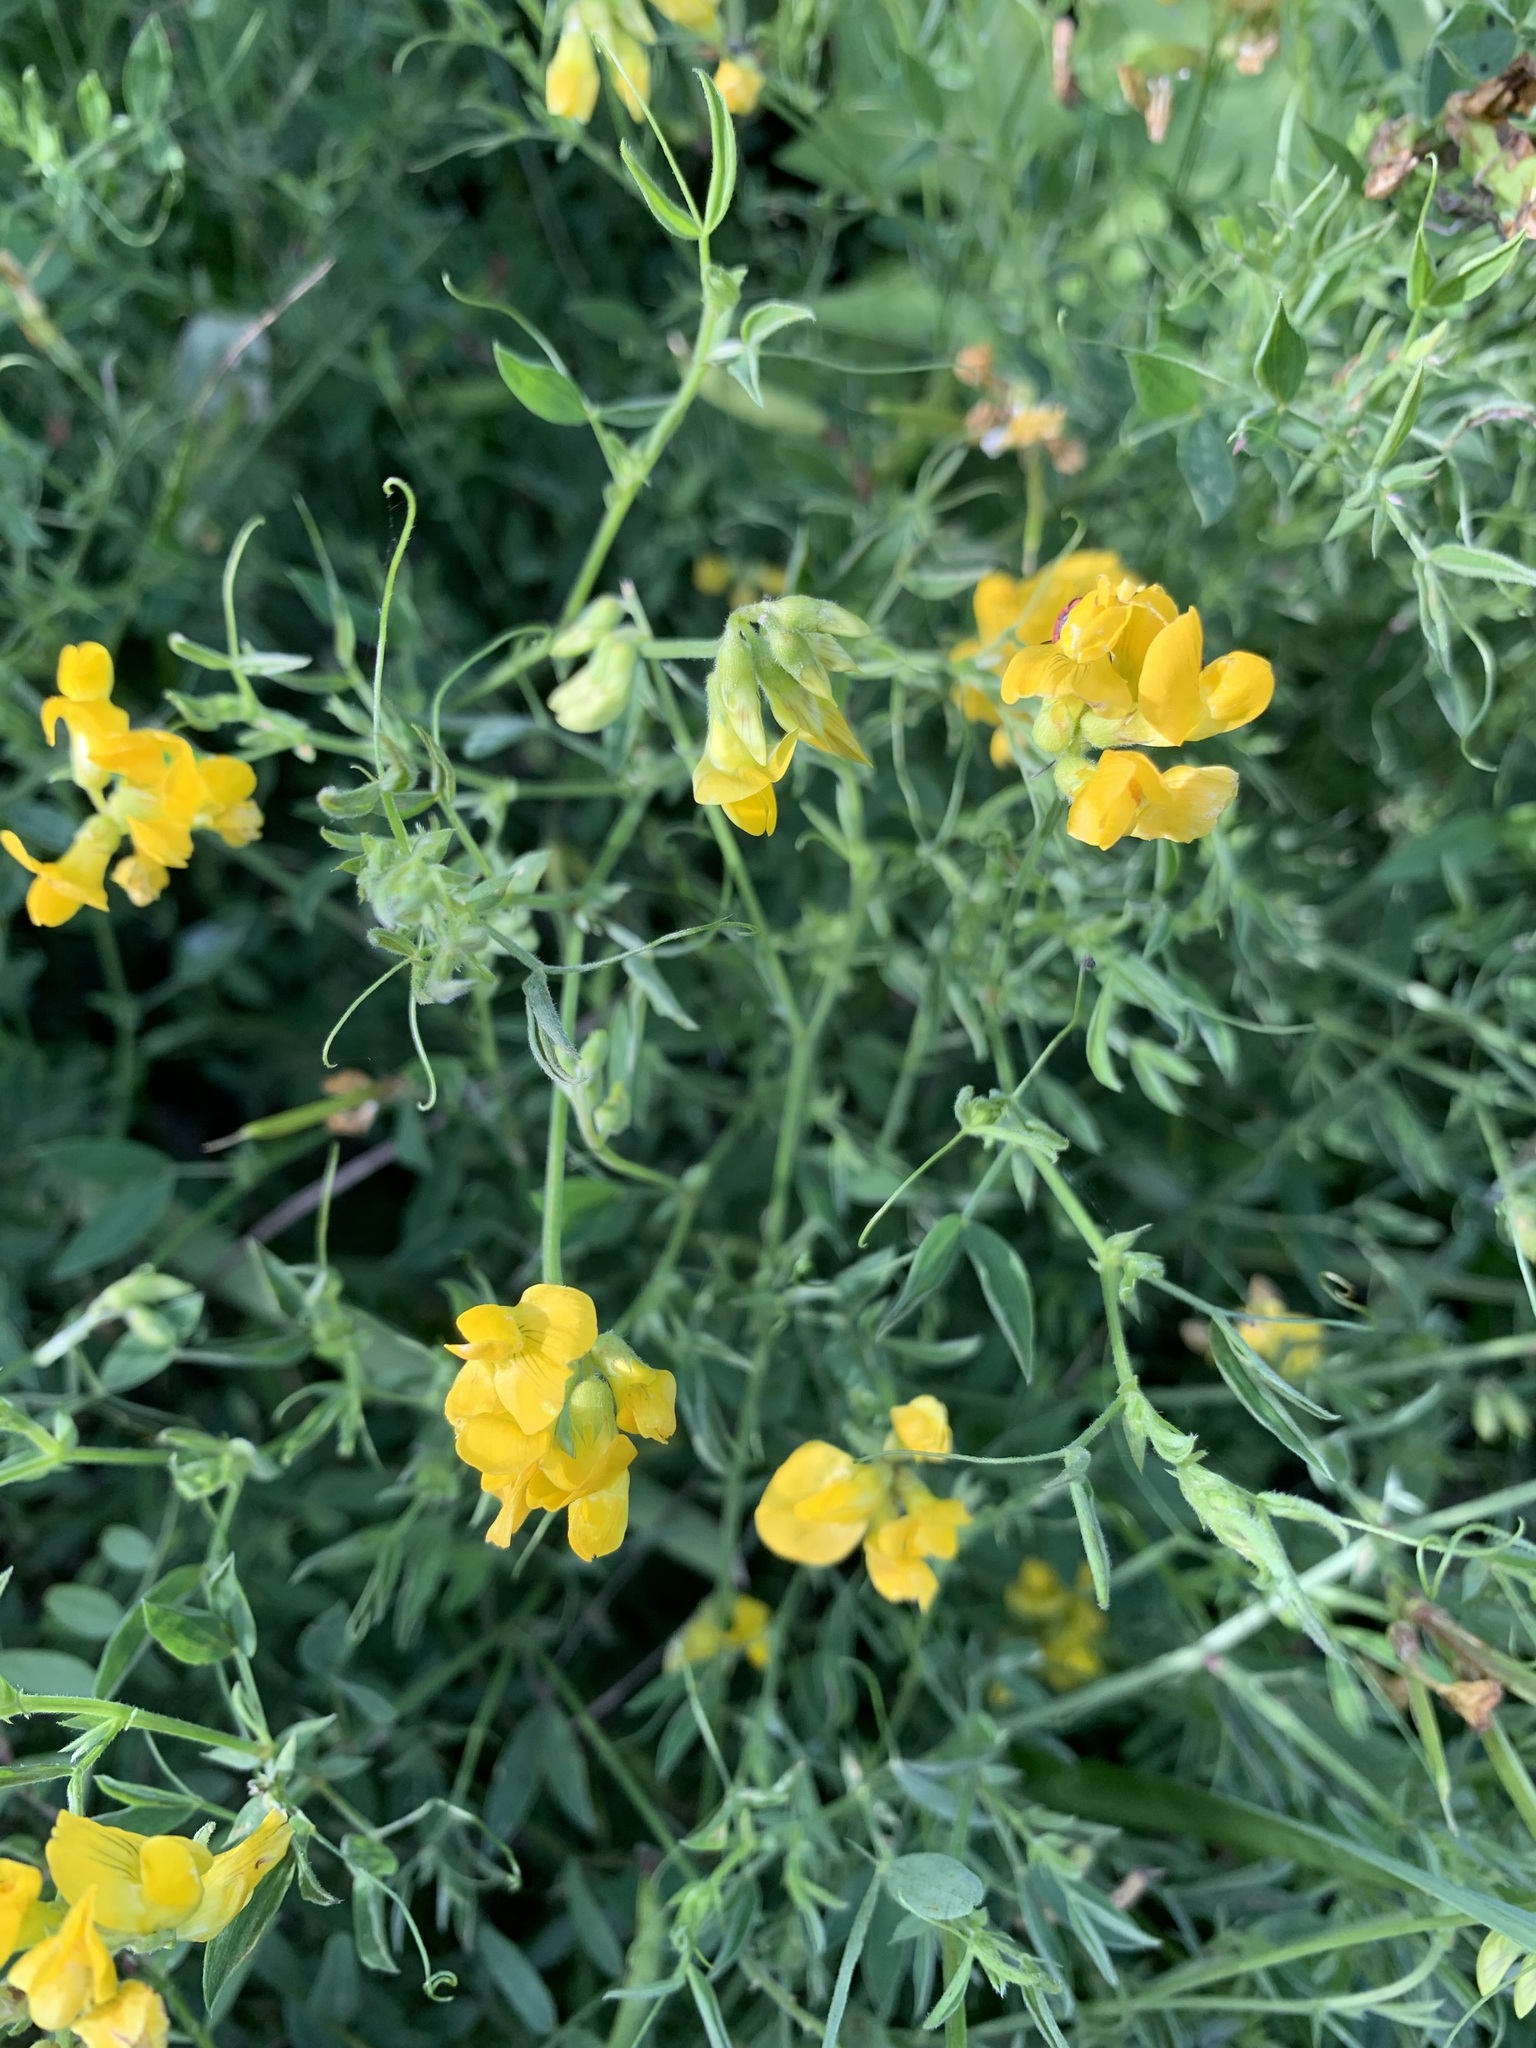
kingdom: Plantae
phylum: Tracheophyta
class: Magnoliopsida
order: Fabales
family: Fabaceae
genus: Lathyrus
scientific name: Lathyrus pratensis
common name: Meadow vetchling
